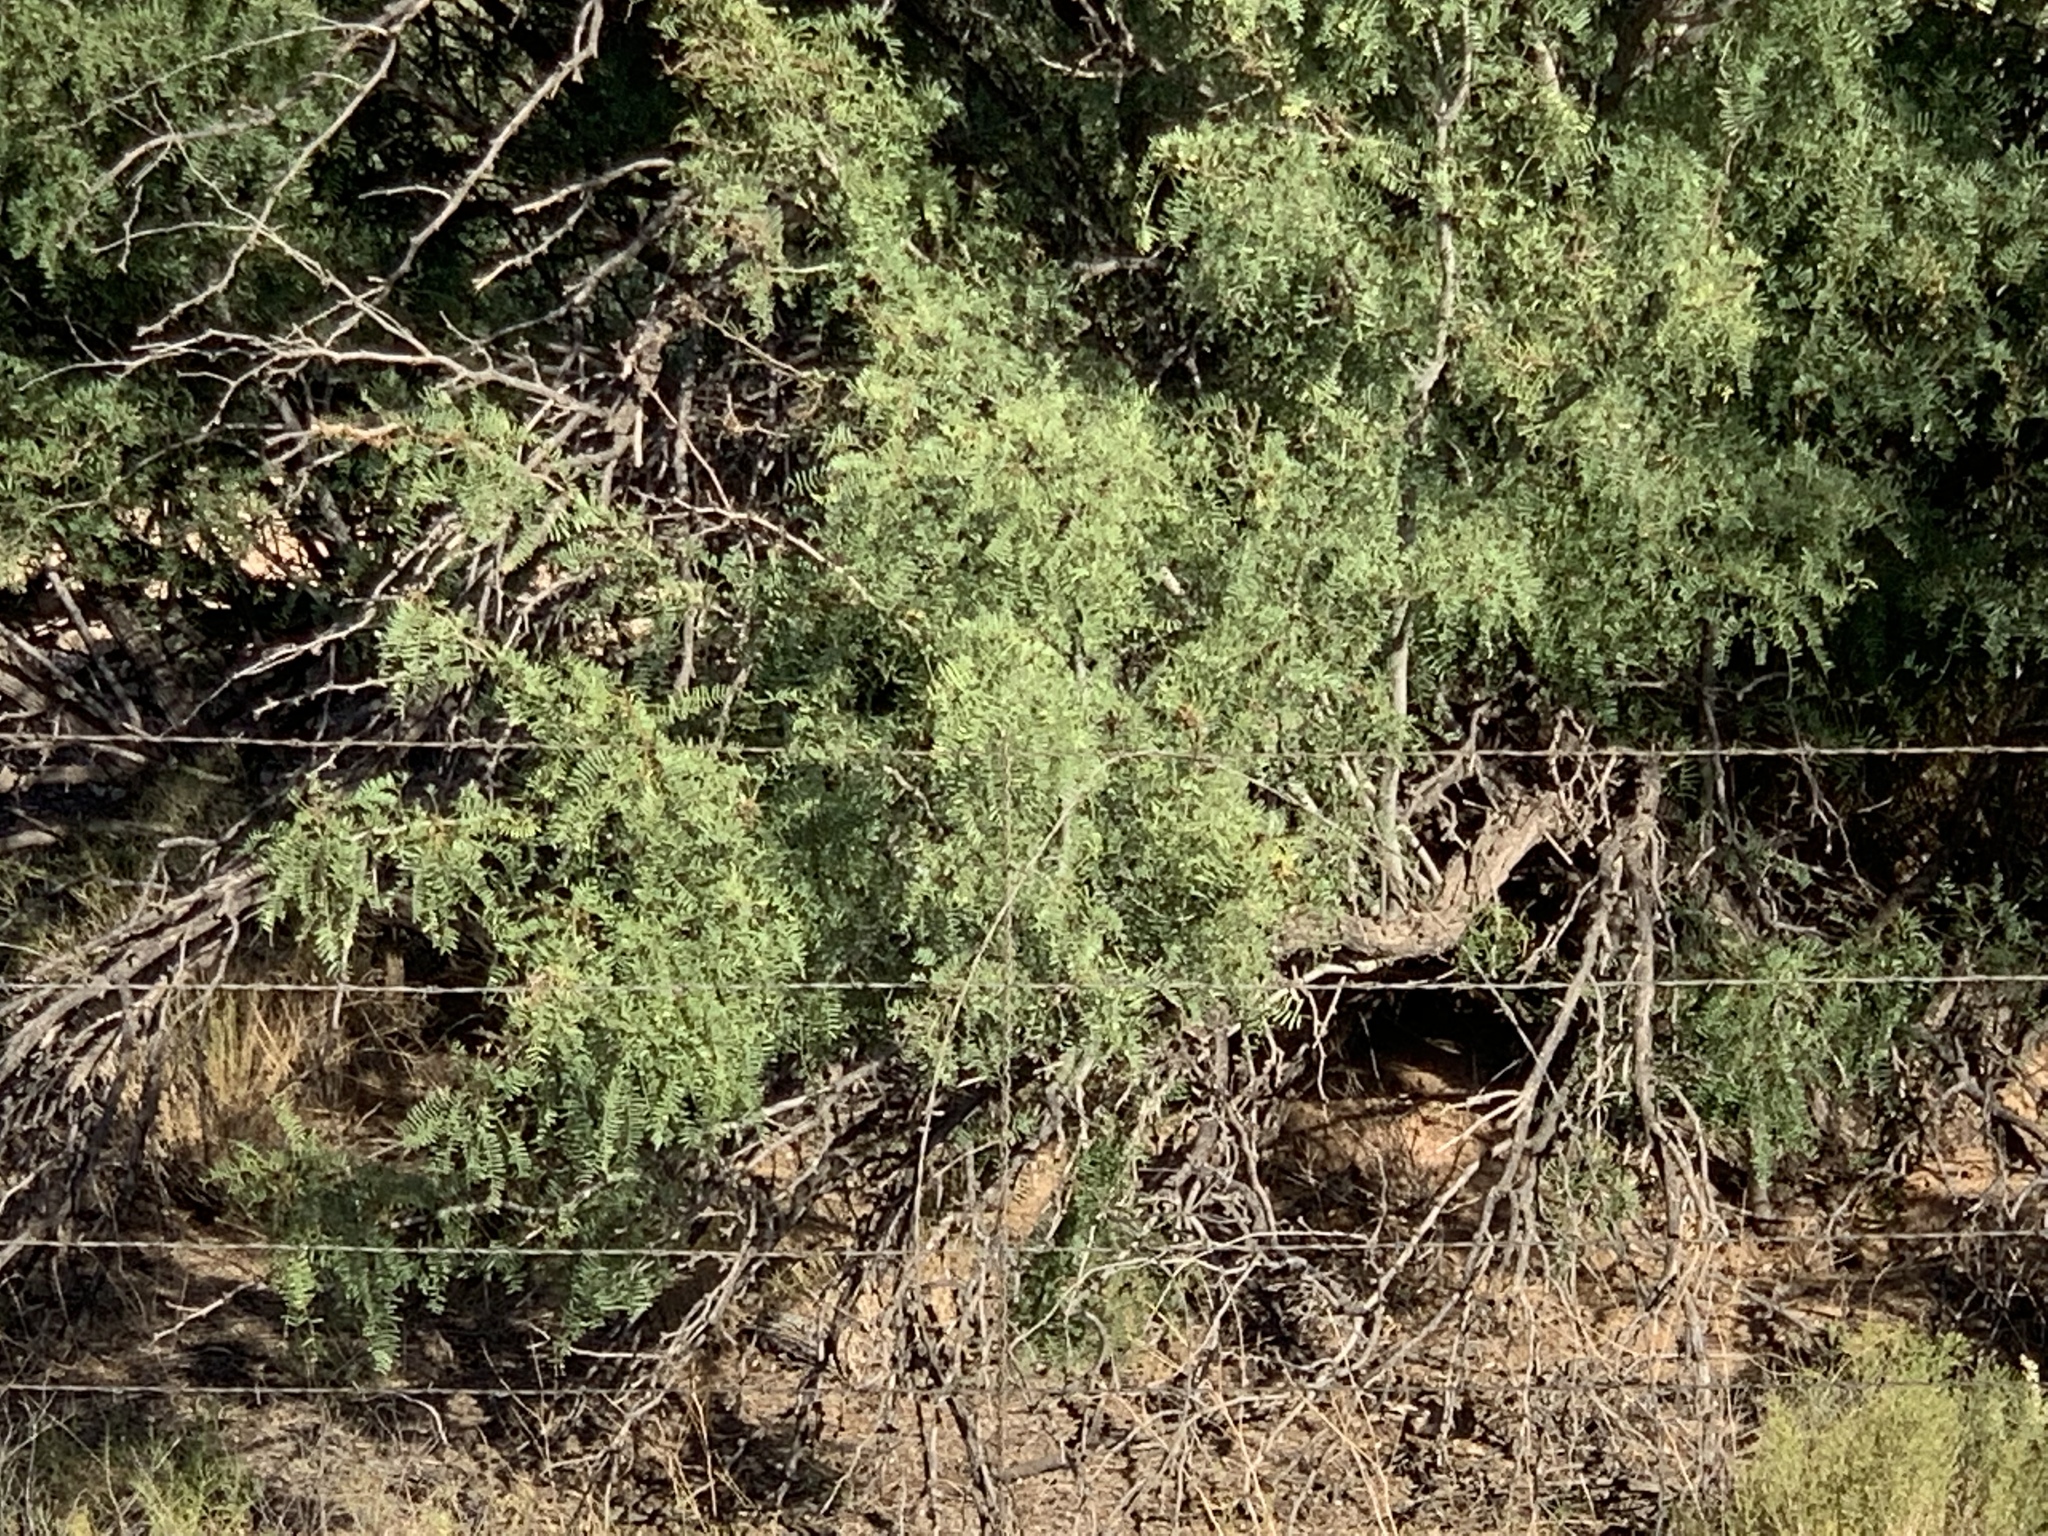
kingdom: Plantae
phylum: Tracheophyta
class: Magnoliopsida
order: Fabales
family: Fabaceae
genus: Prosopis
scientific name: Prosopis glandulosa
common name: Honey mesquite
